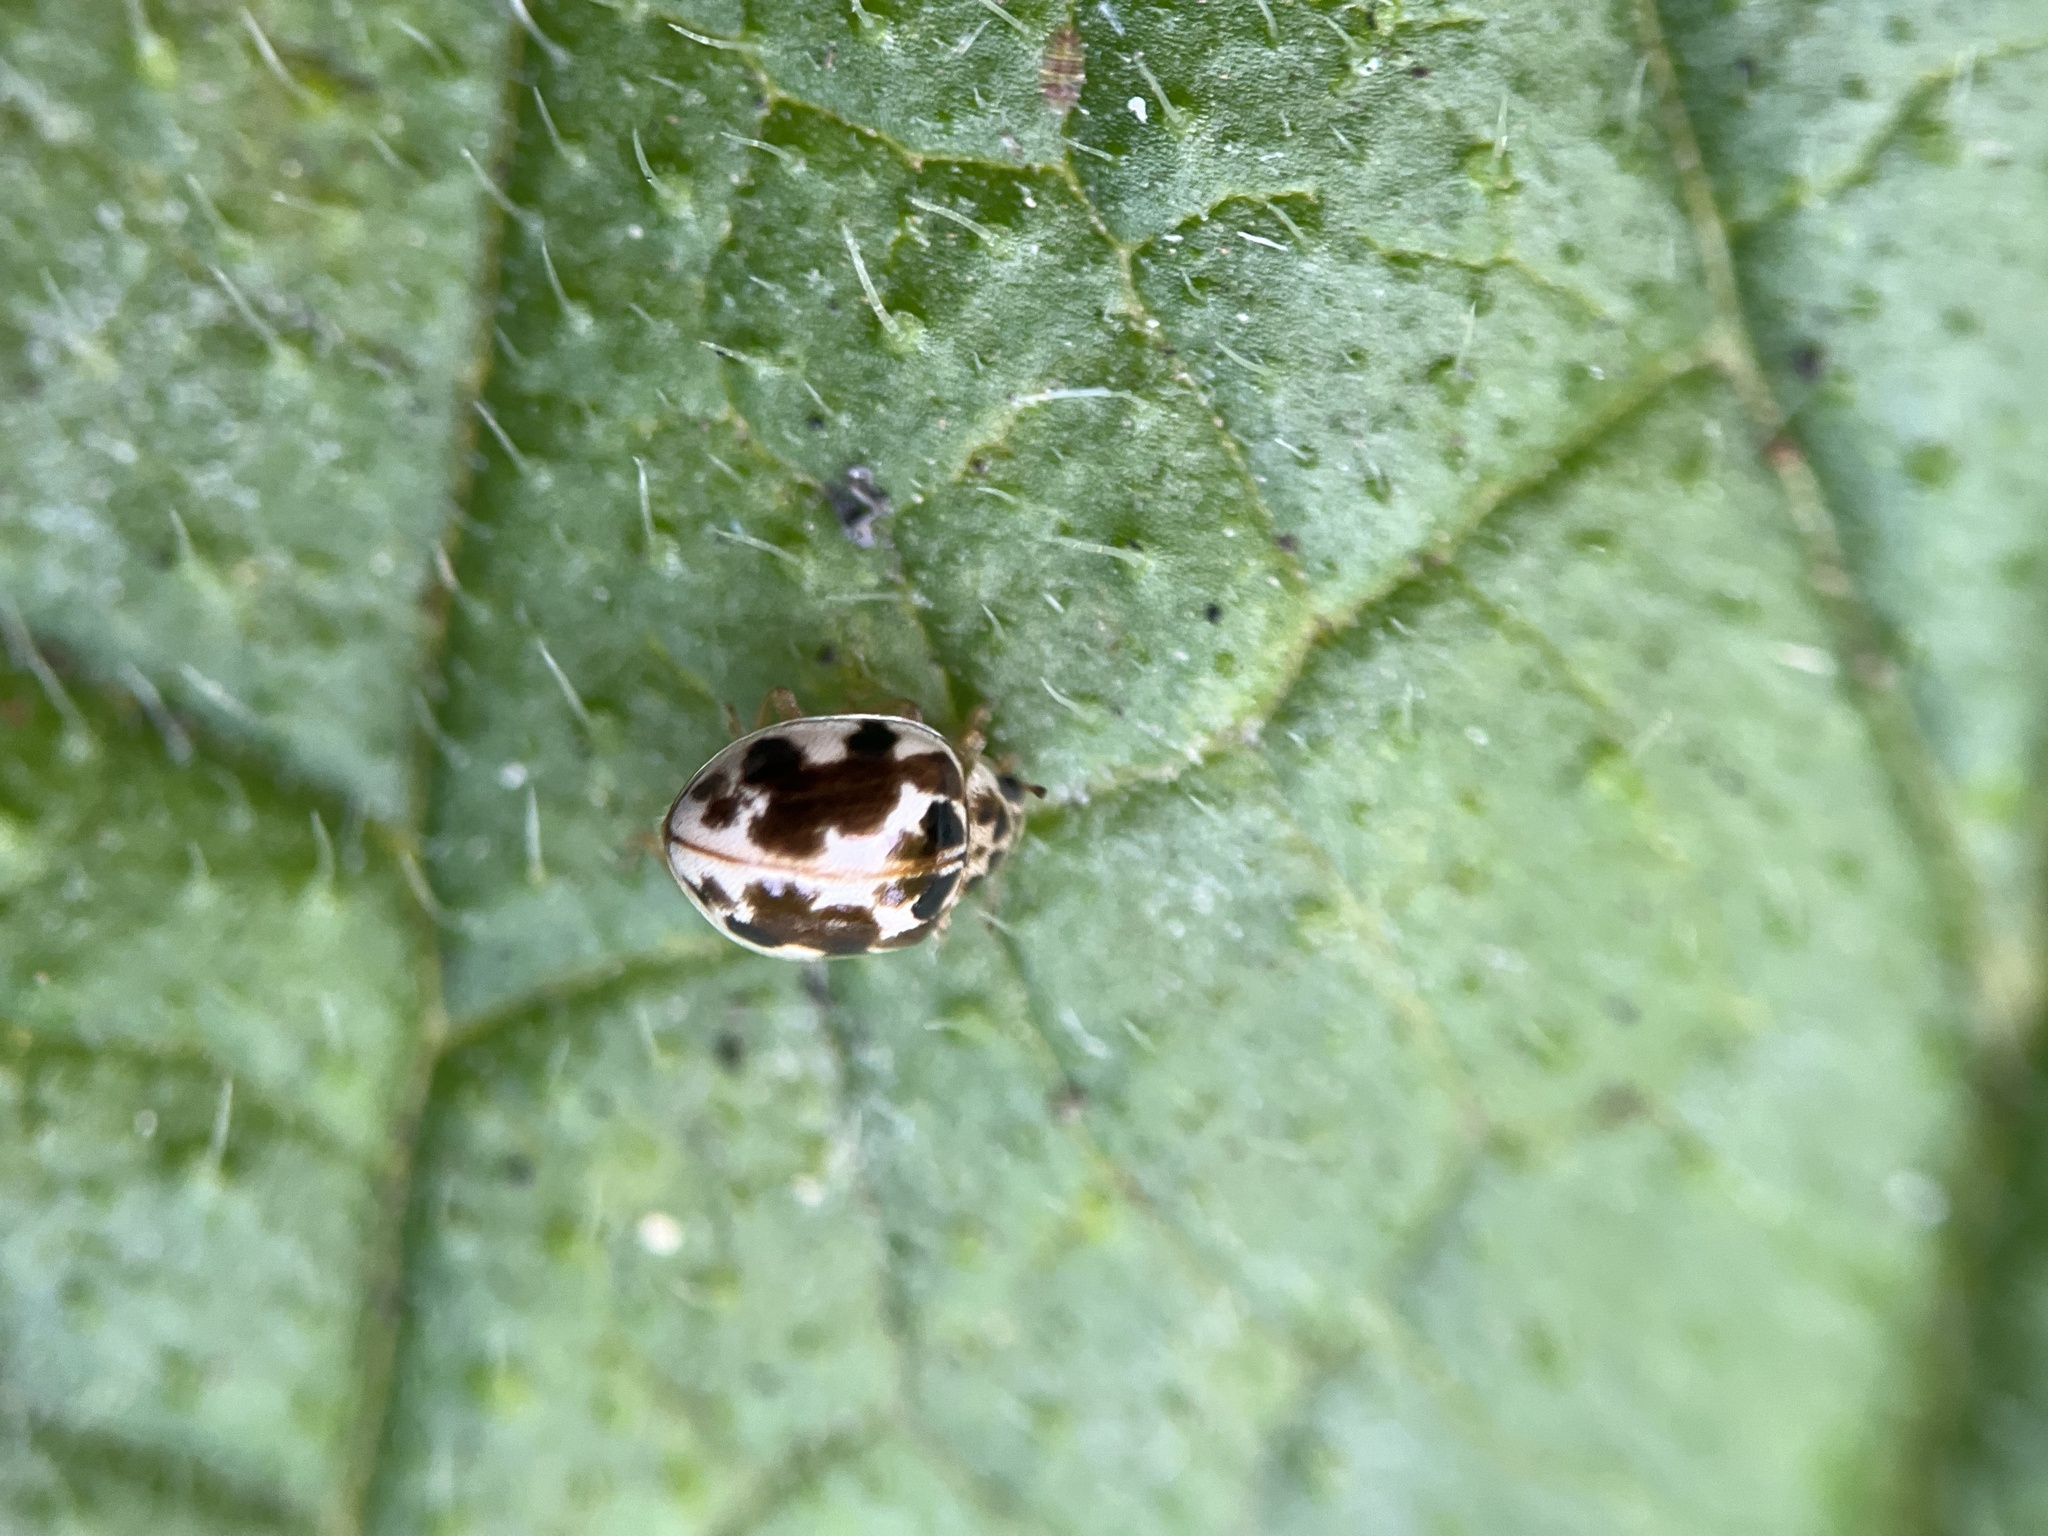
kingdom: Animalia
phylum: Arthropoda
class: Insecta
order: Coleoptera
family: Coccinellidae
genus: Psyllobora
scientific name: Psyllobora vigintimaculata
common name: Ladybird beetle
